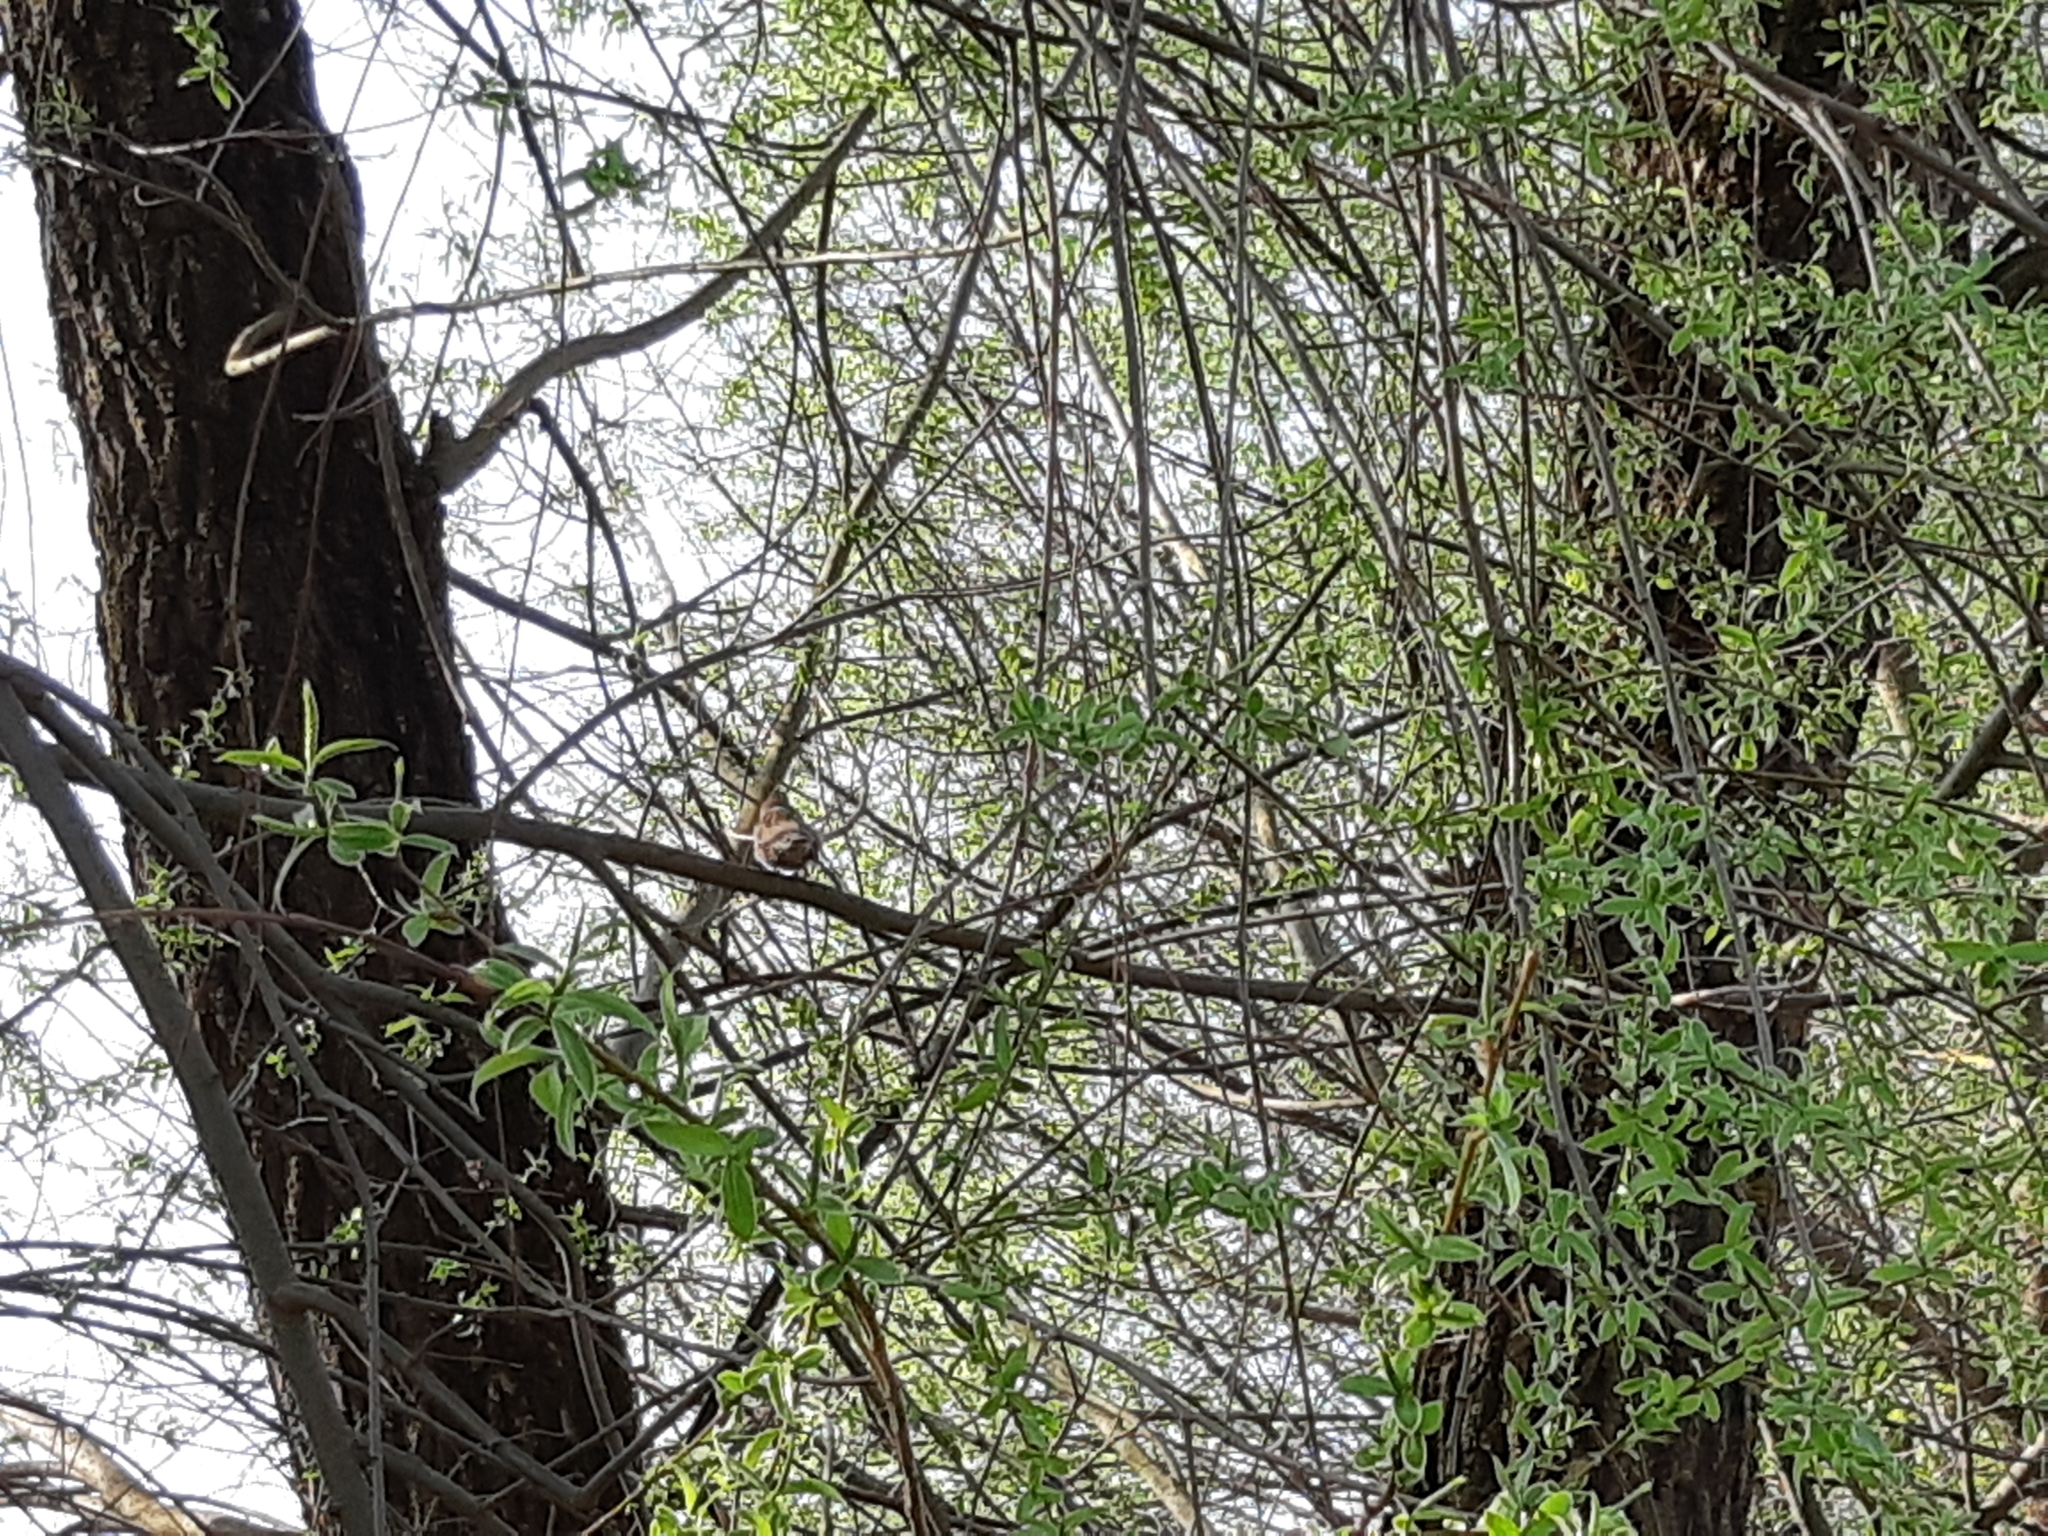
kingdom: Animalia
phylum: Chordata
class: Aves
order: Passeriformes
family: Passeridae
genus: Passer
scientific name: Passer montanus
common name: Eurasian tree sparrow
